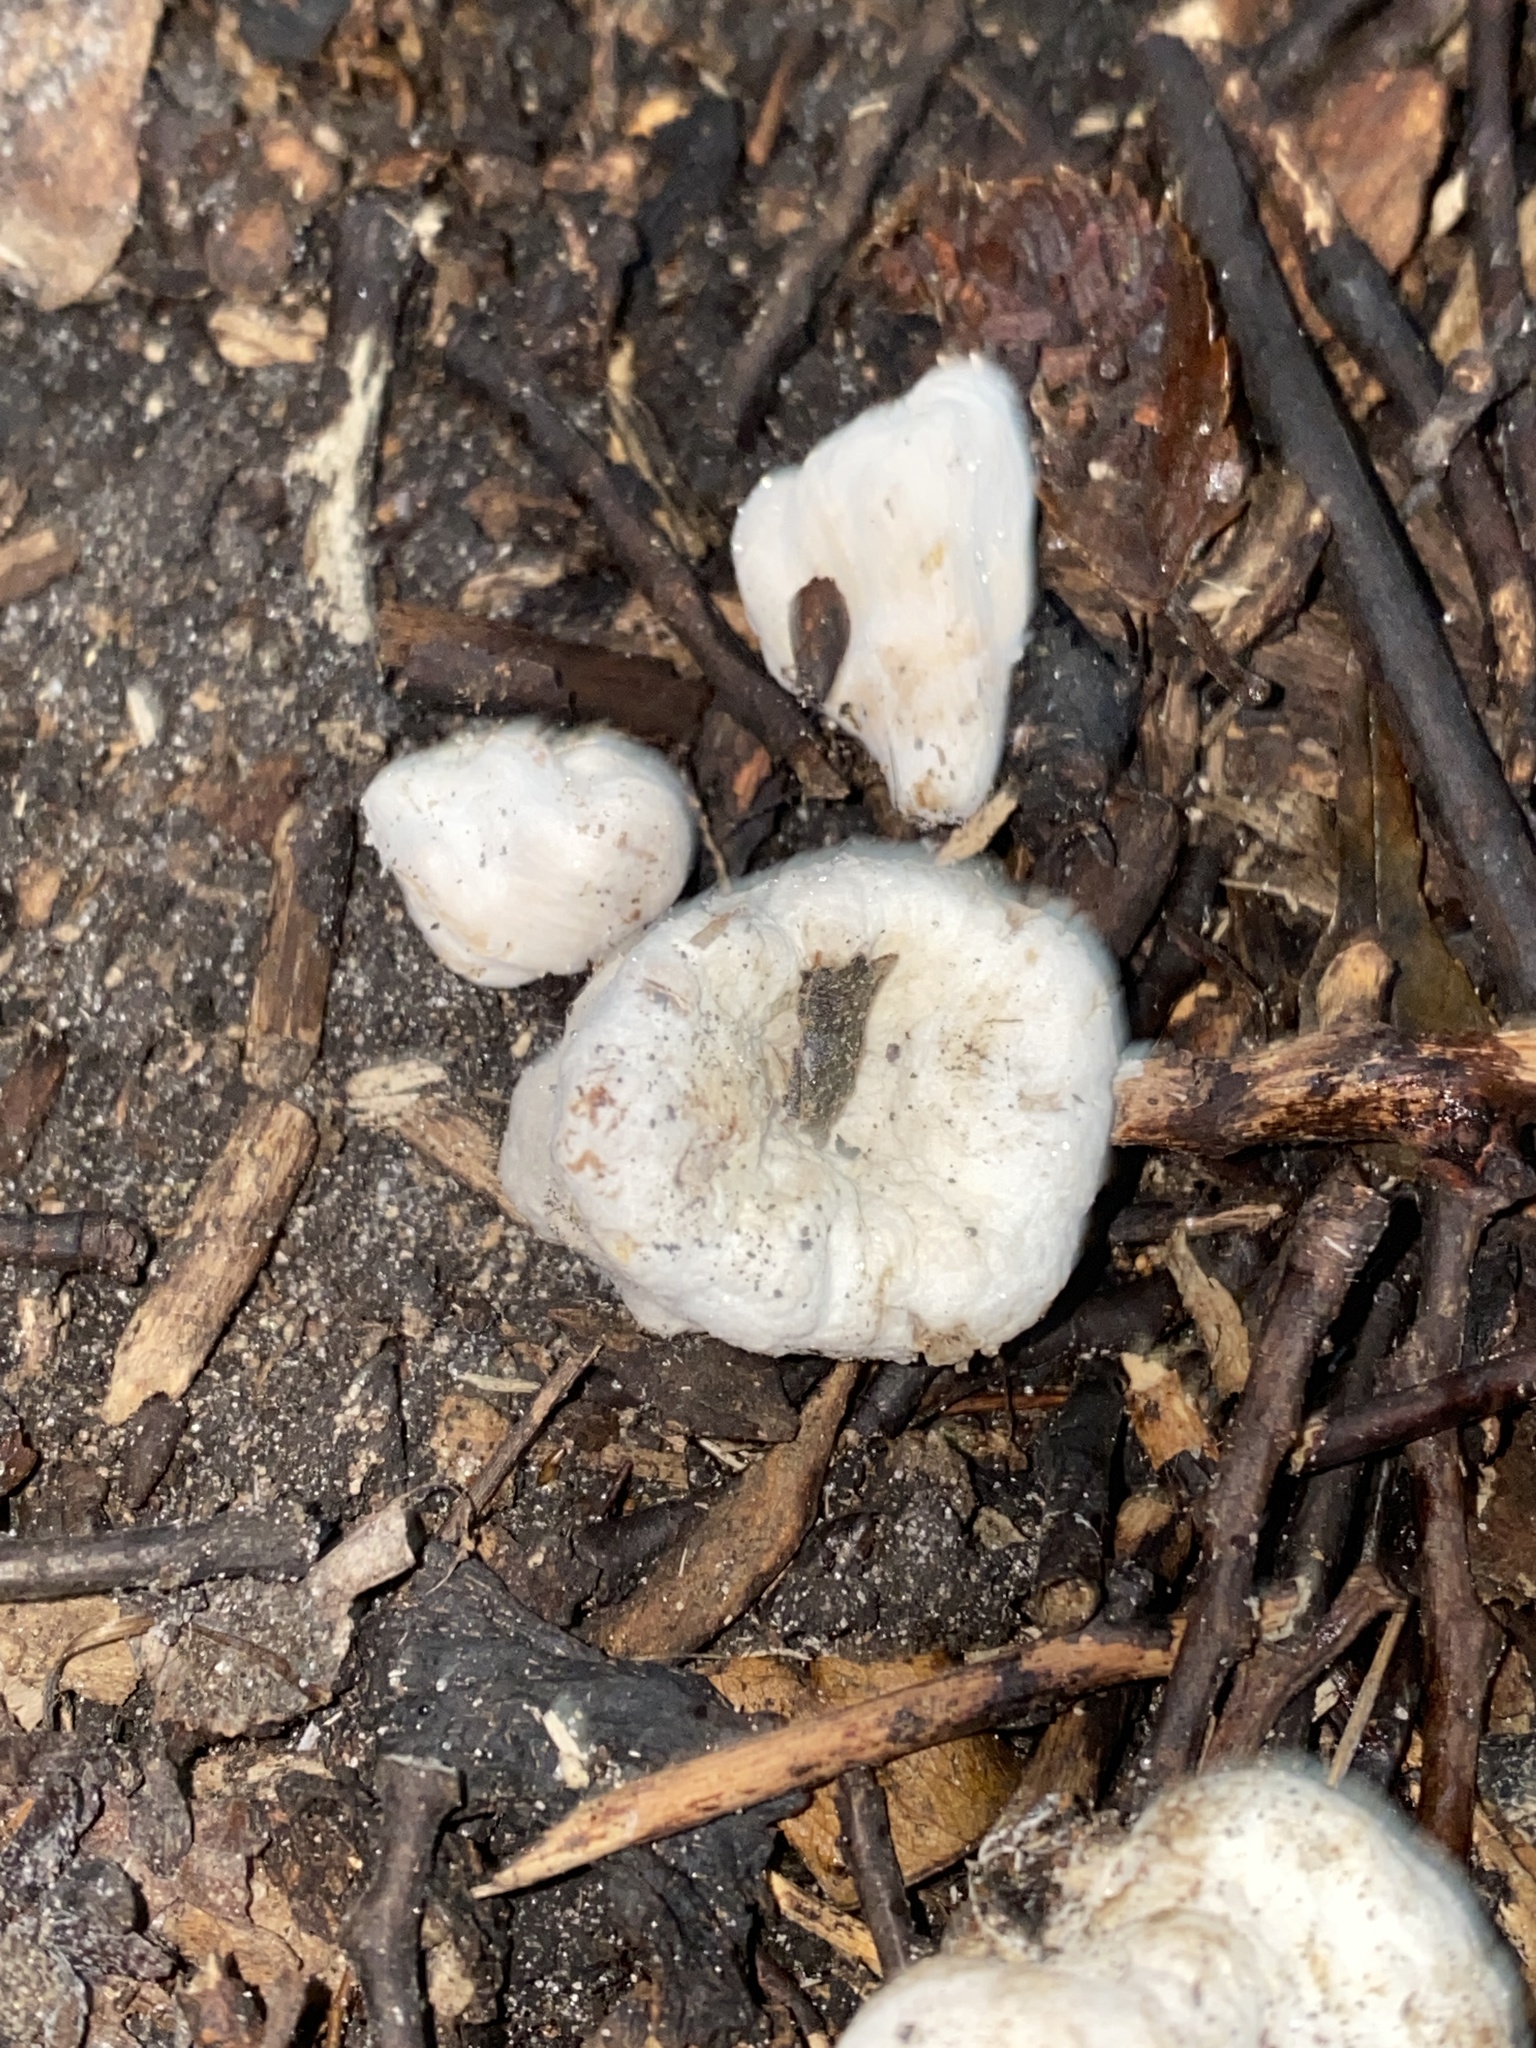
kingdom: Fungi
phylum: Basidiomycota
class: Agaricomycetes
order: Agaricales
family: Entolomataceae
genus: Entoloma
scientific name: Entoloma abortivum
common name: Aborted entoloma
